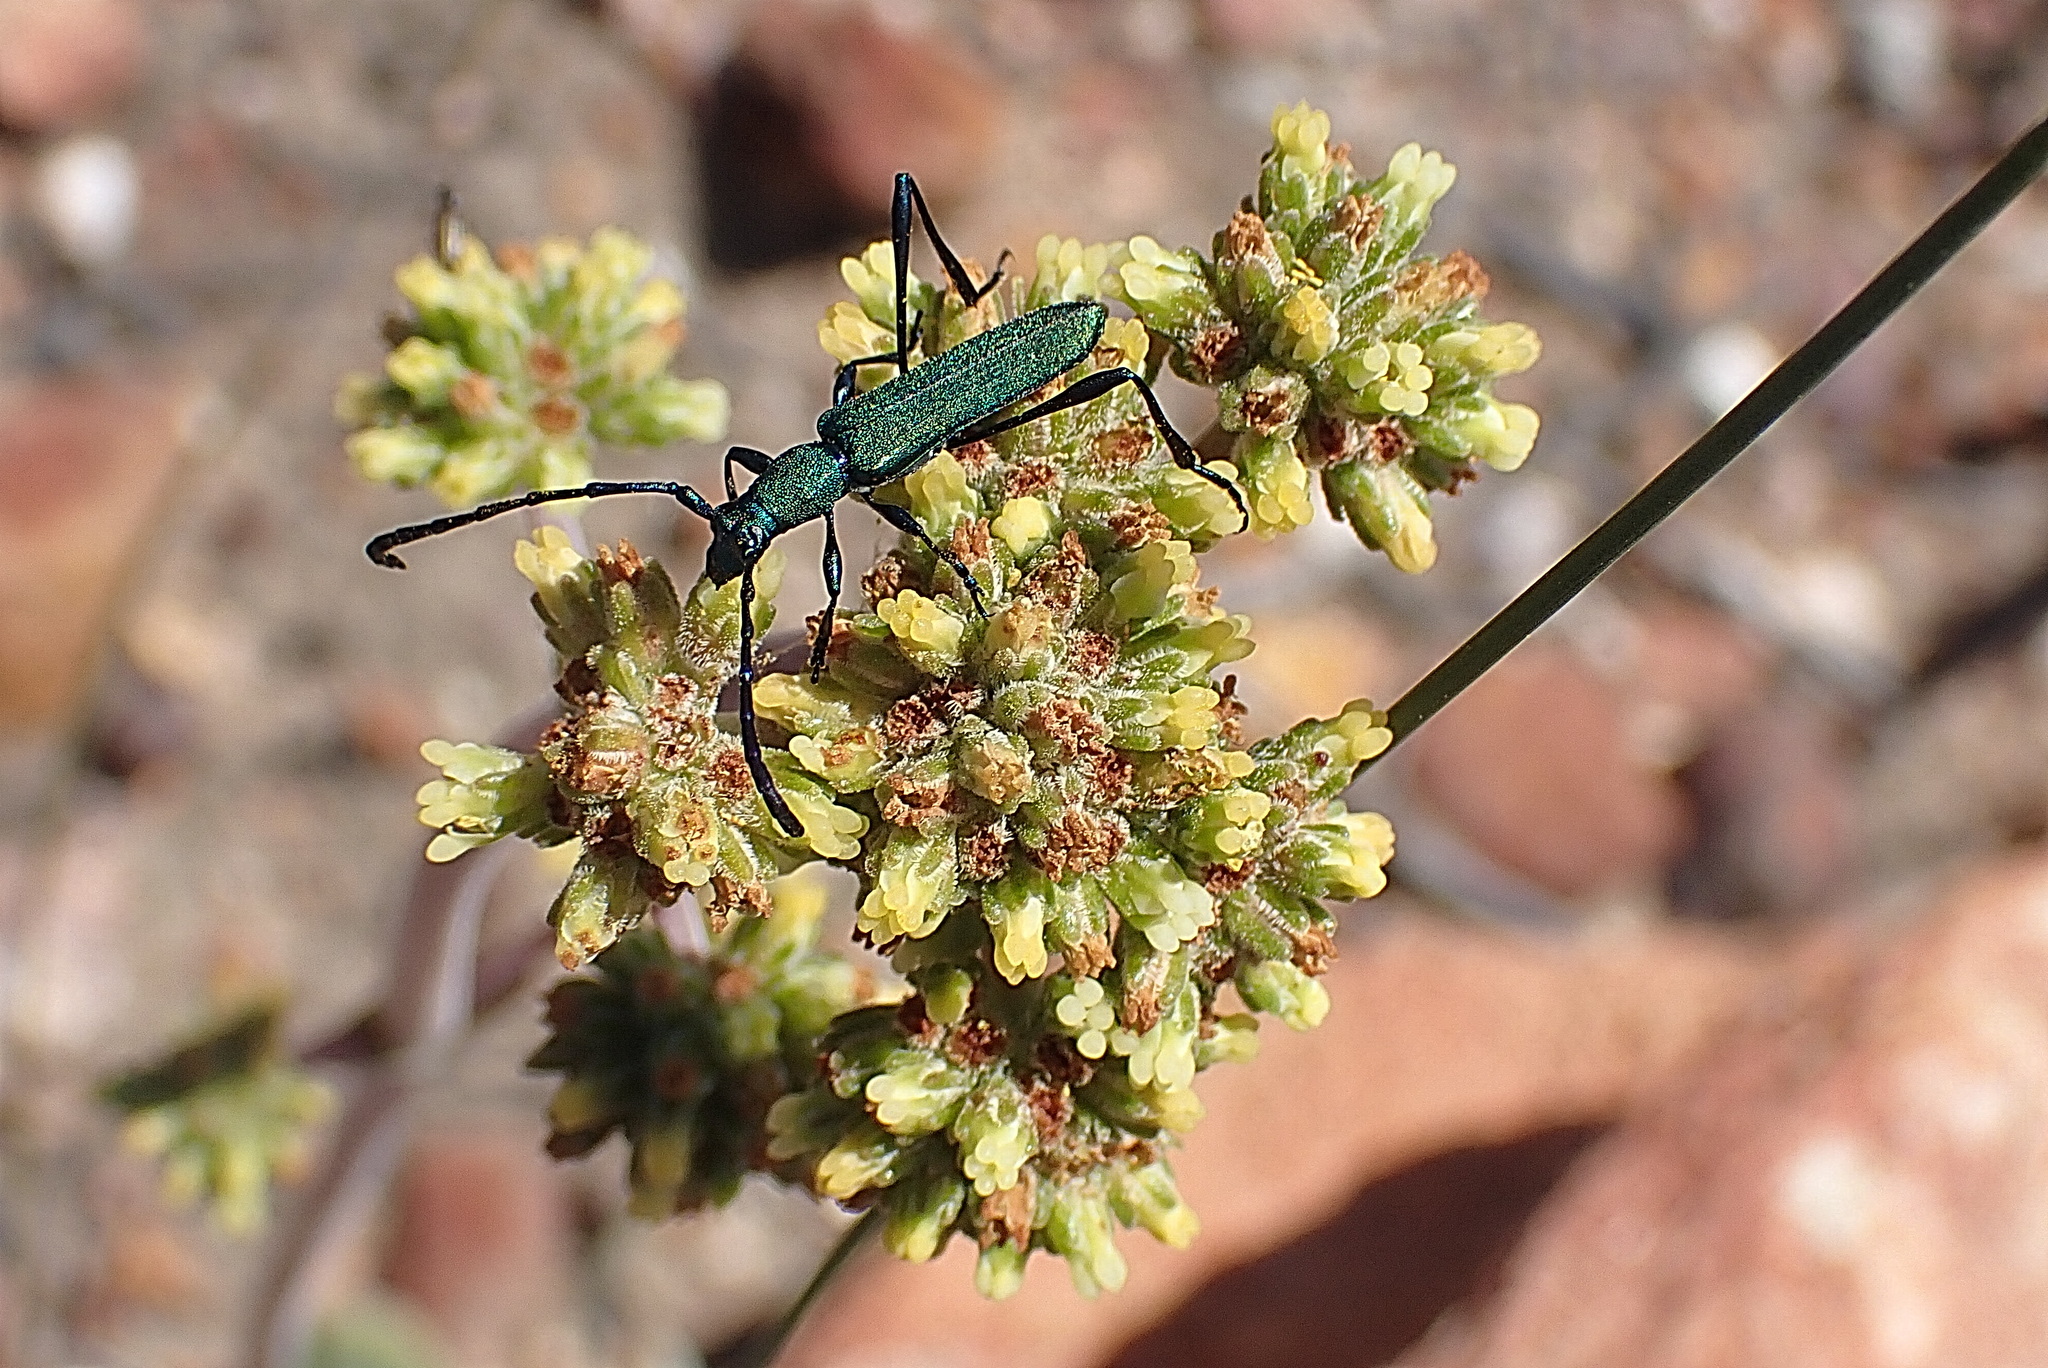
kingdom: Animalia
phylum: Arthropoda
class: Insecta
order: Coleoptera
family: Cerambycidae
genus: Hypocrites
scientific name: Hypocrites
